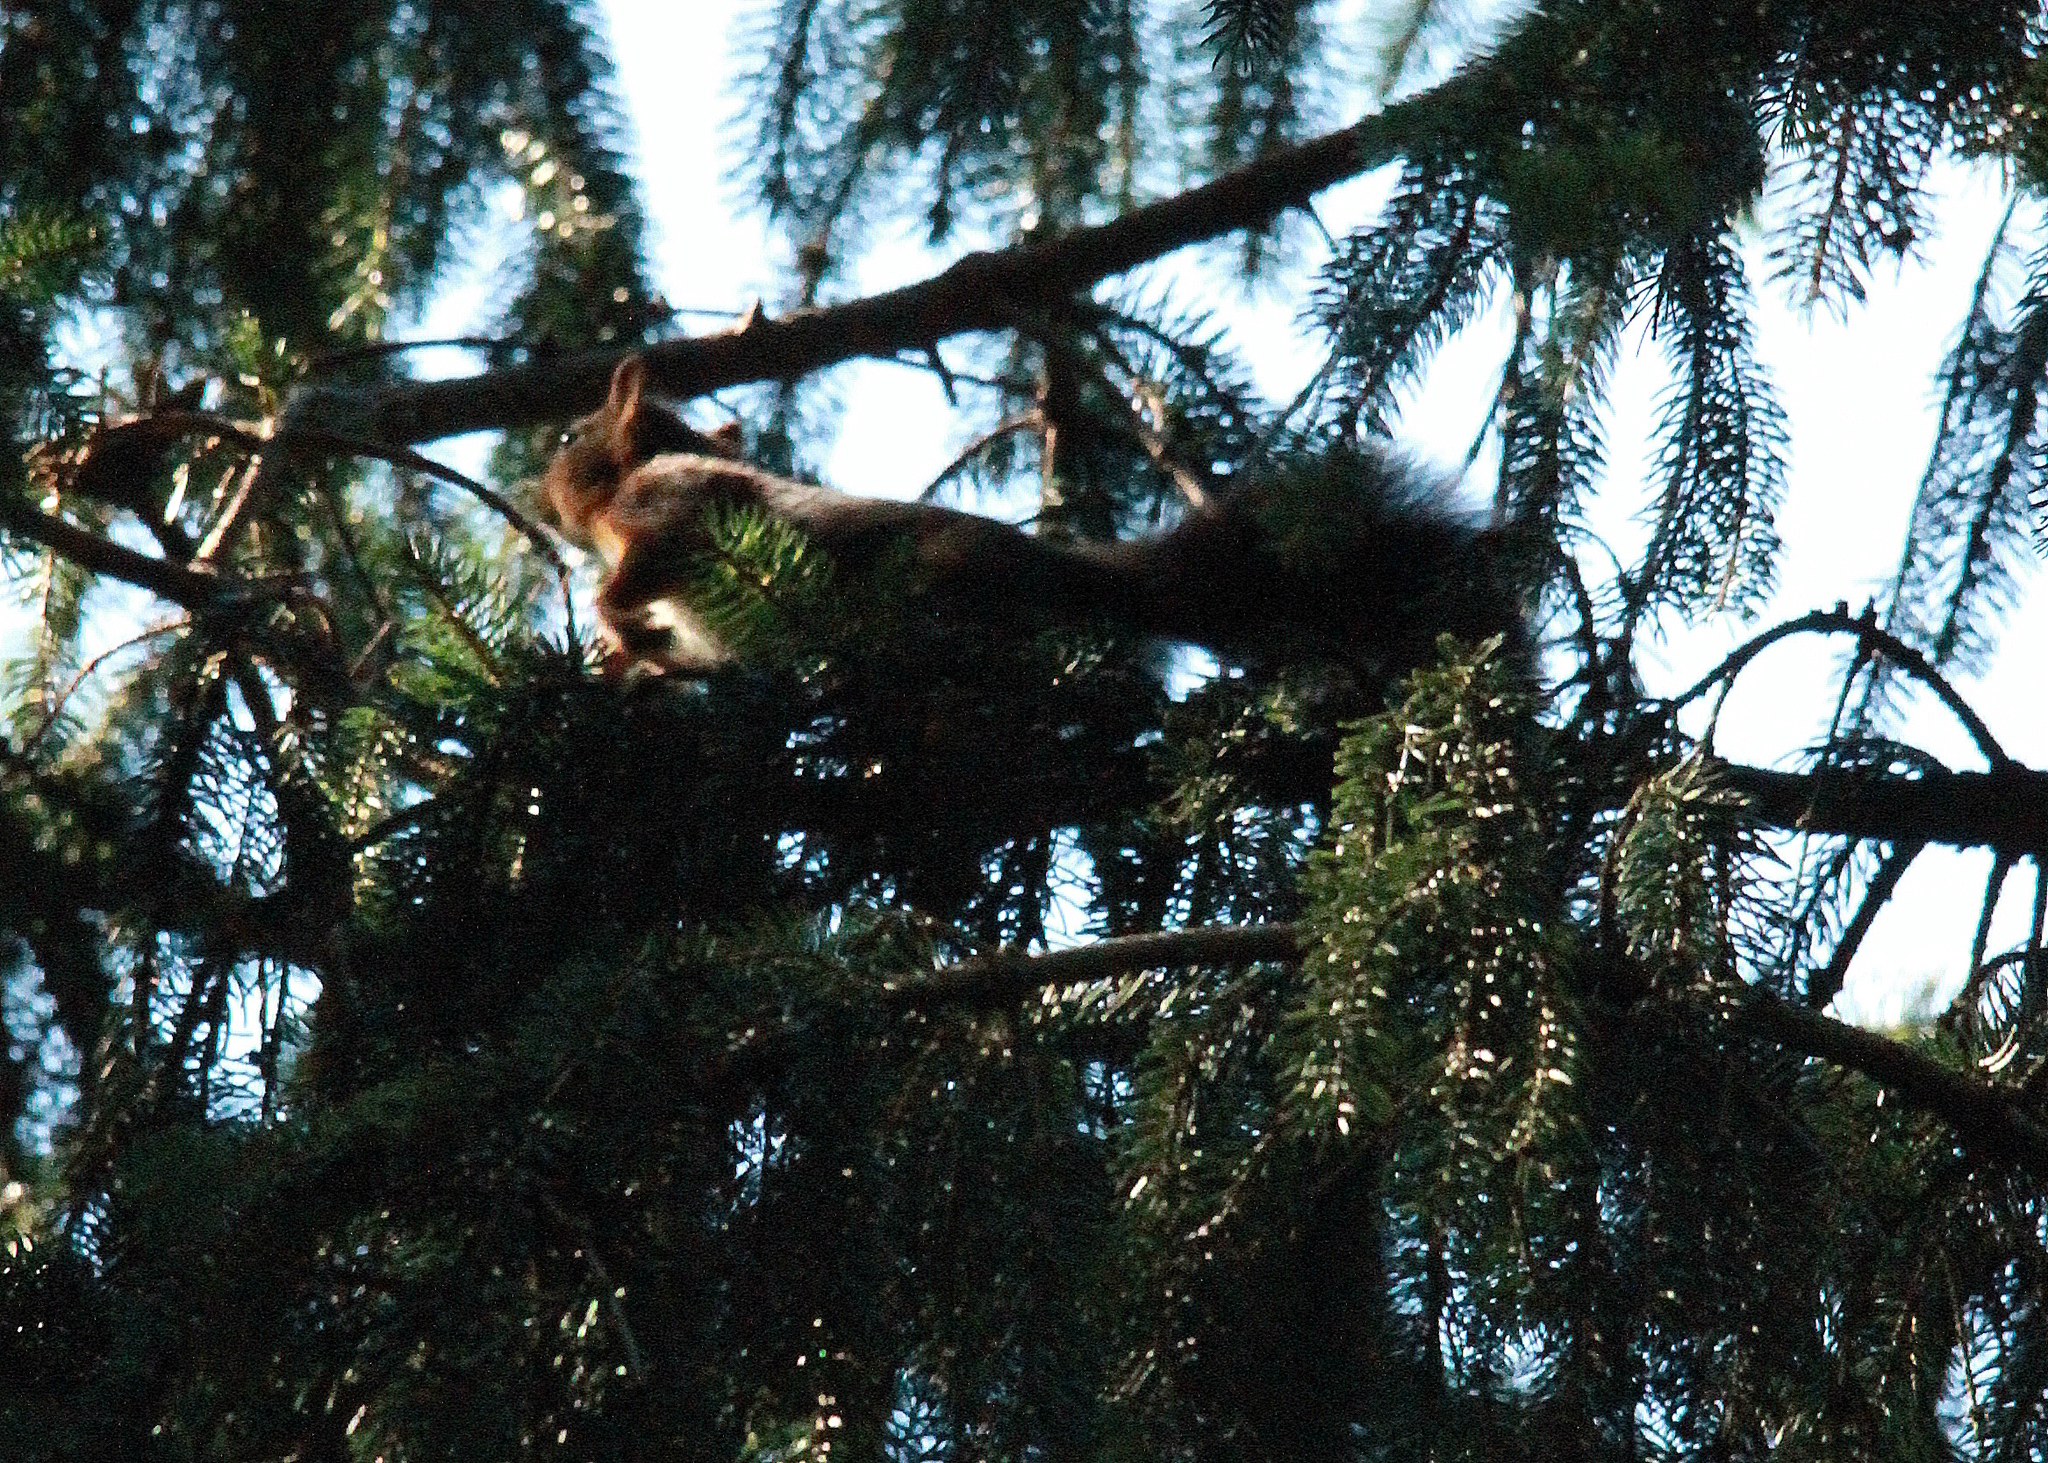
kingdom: Animalia
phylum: Chordata
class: Mammalia
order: Rodentia
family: Sciuridae
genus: Sciurus
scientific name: Sciurus vulgaris
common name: Eurasian red squirrel
